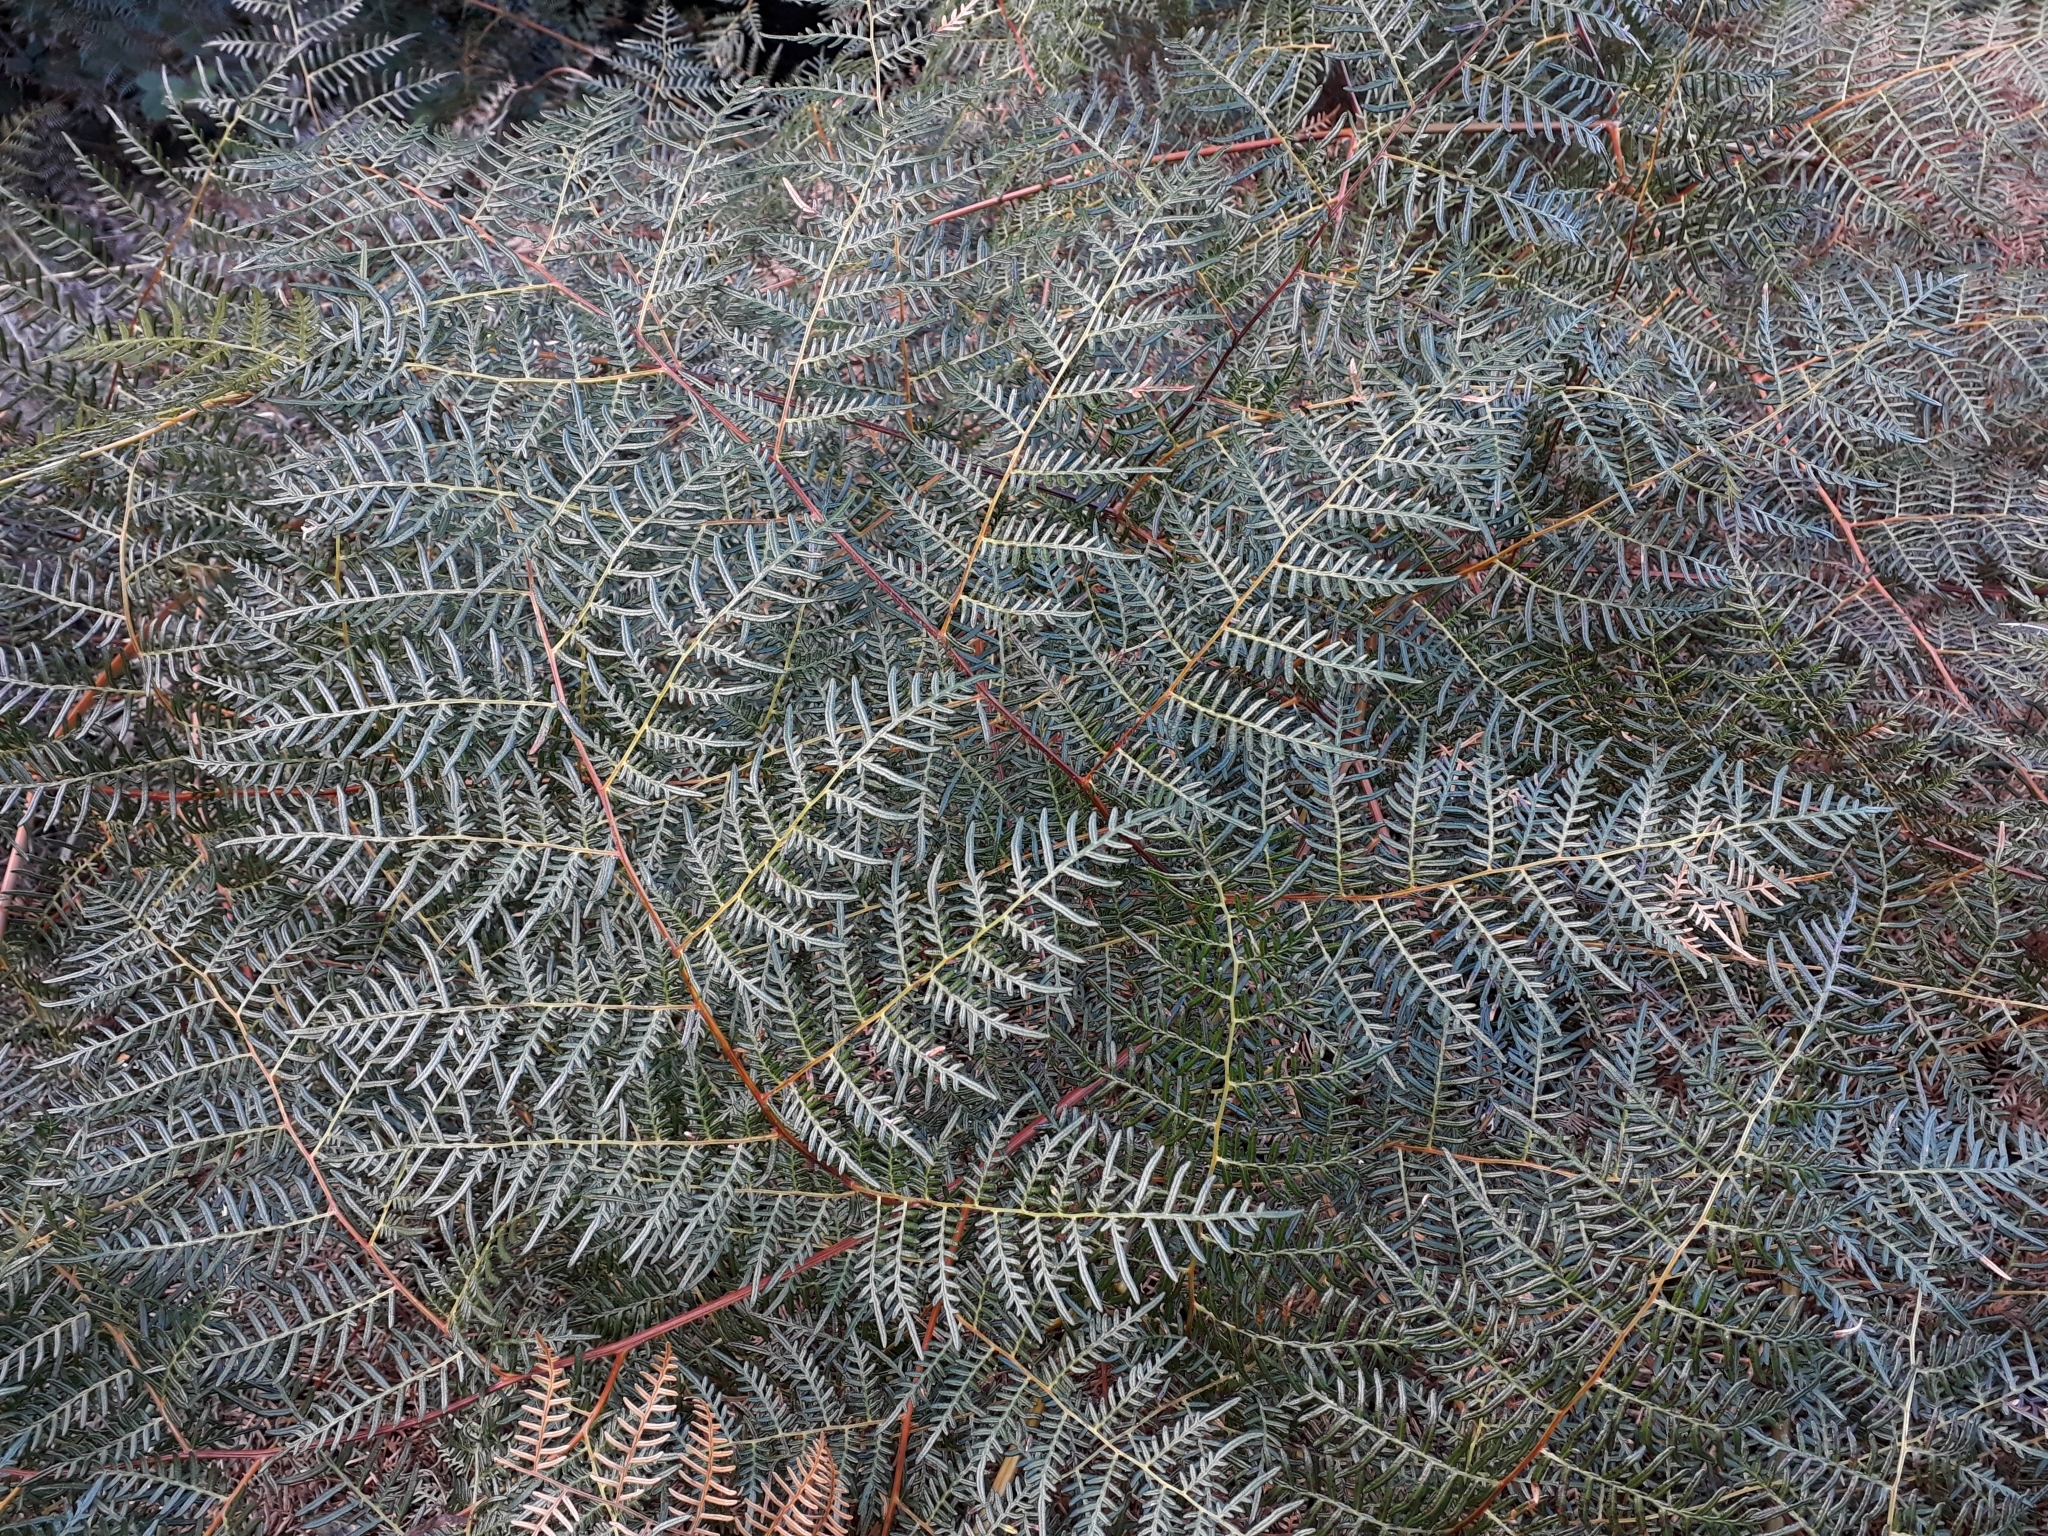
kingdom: Plantae
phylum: Tracheophyta
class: Polypodiopsida
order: Polypodiales
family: Dennstaedtiaceae
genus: Pteridium
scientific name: Pteridium esculentum
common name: Bracken fern
